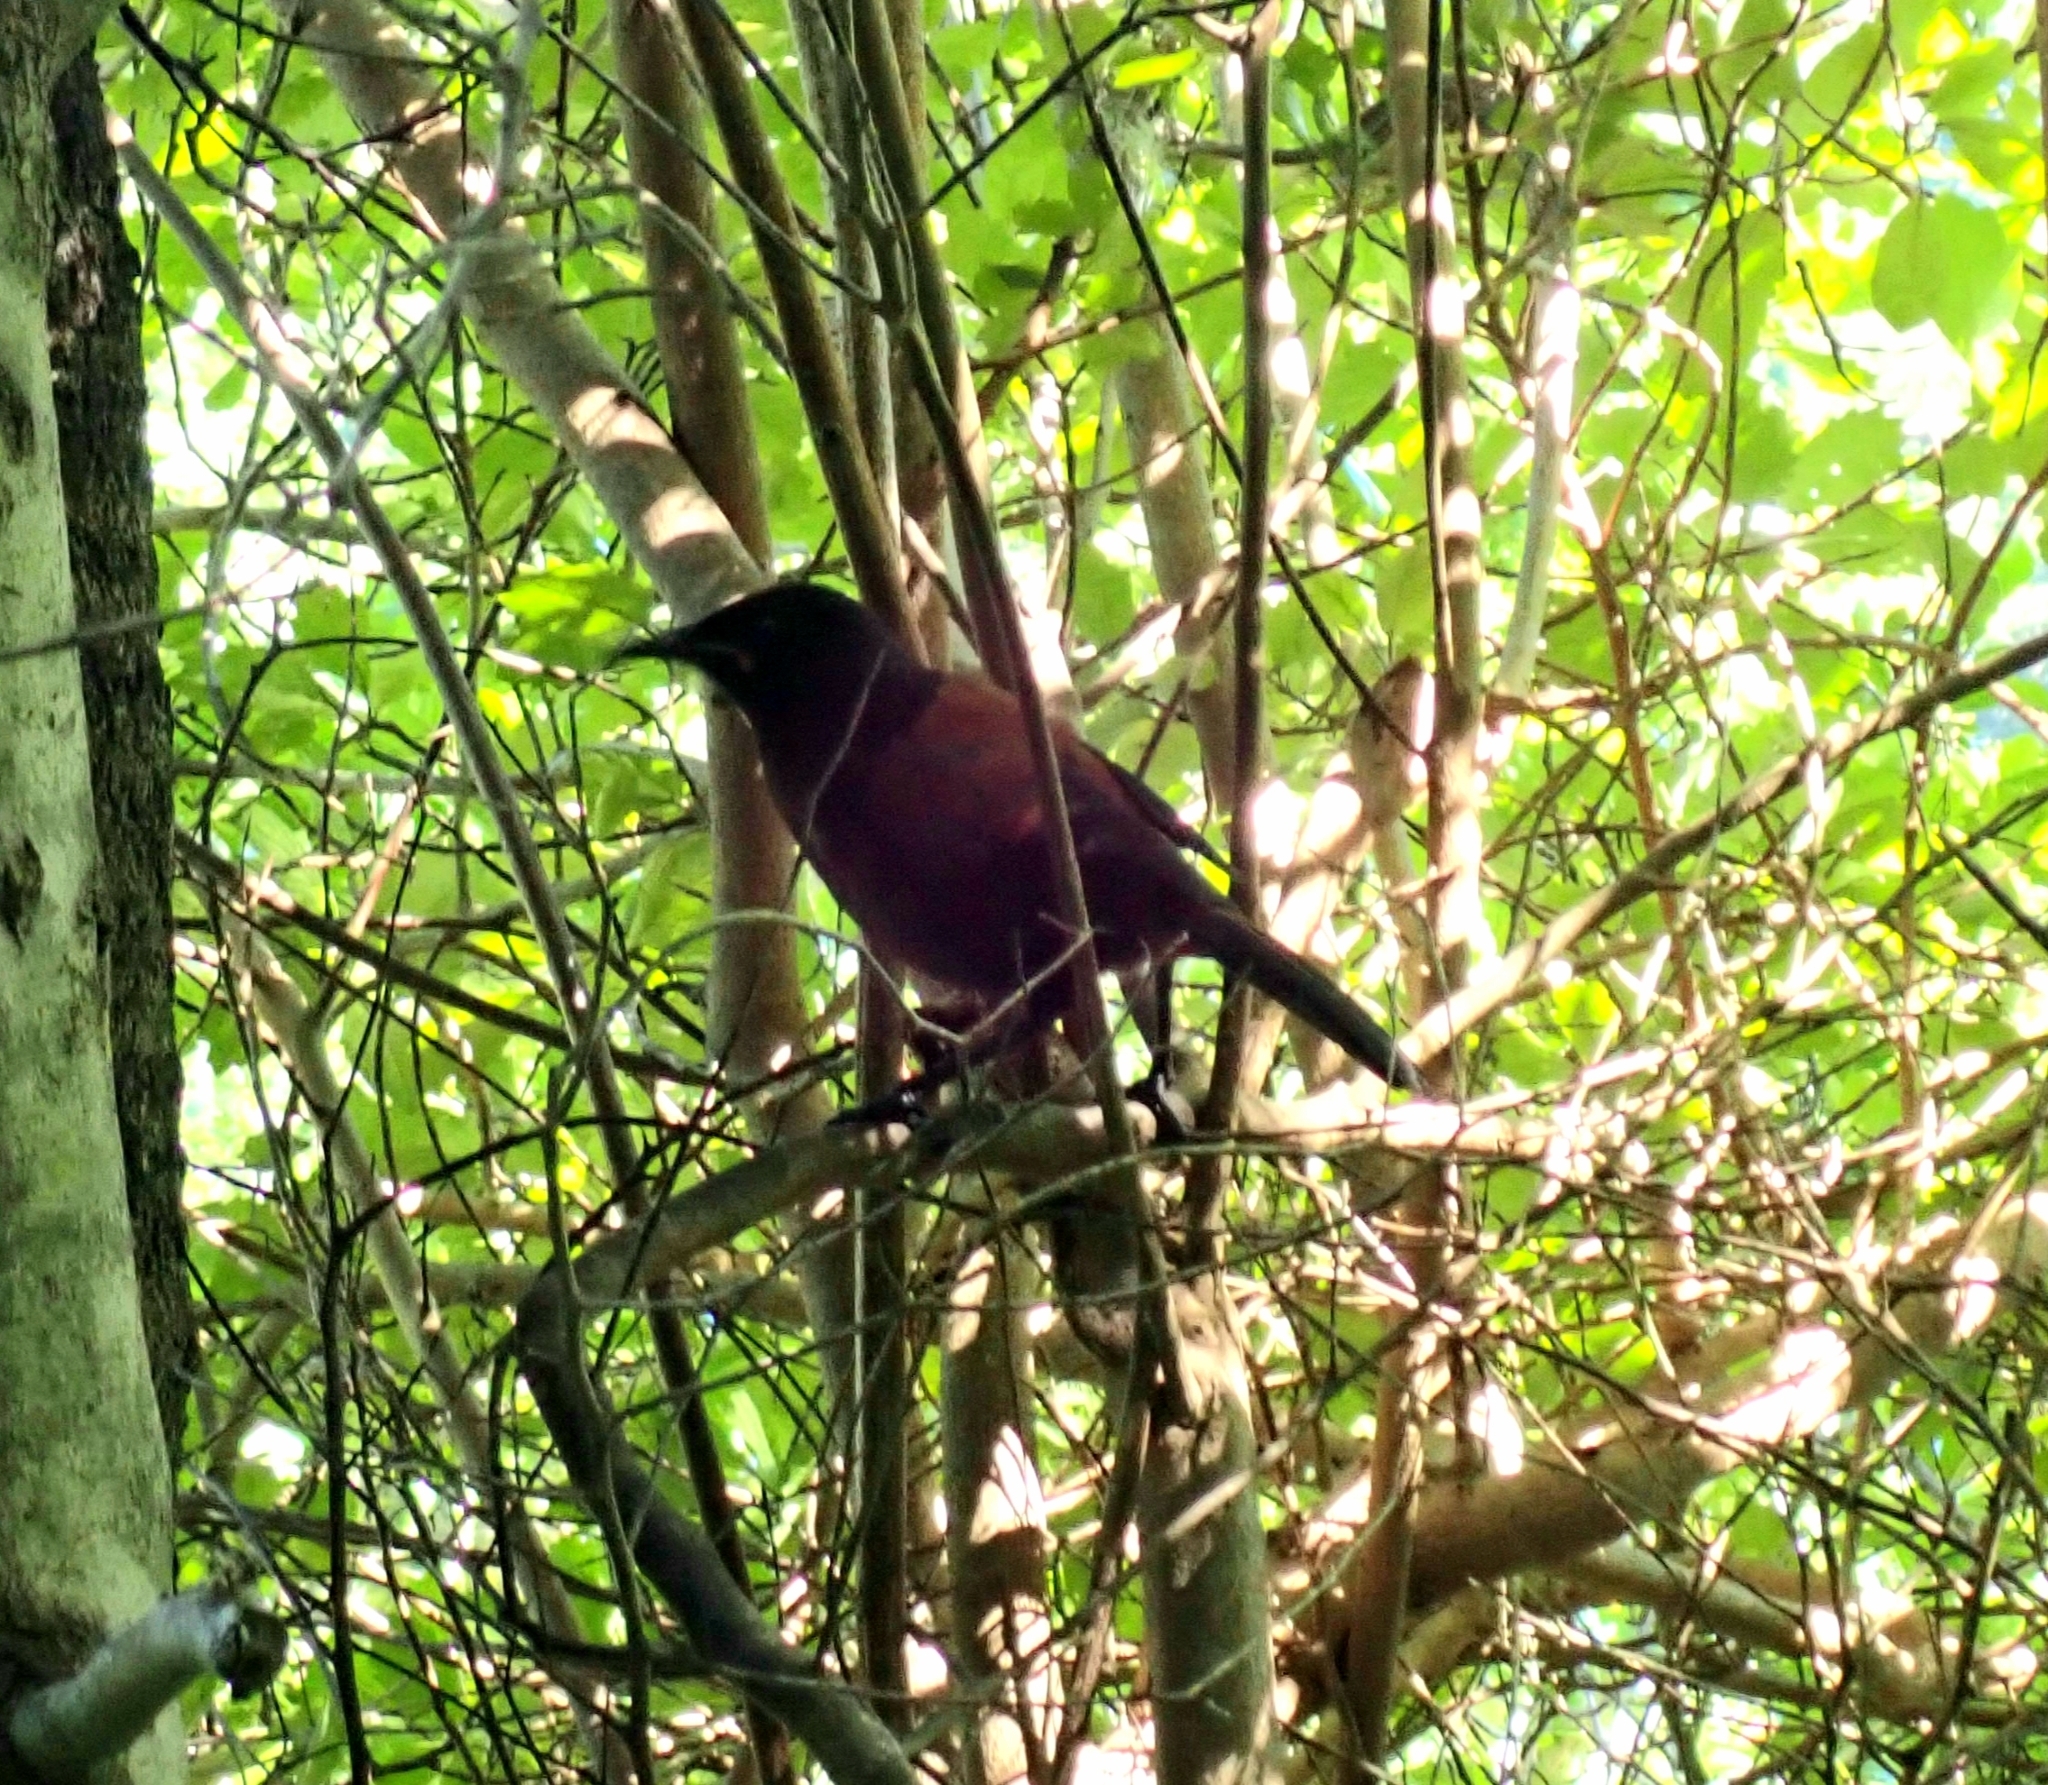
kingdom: Animalia
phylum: Chordata
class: Aves
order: Passeriformes
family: Callaeatidae
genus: Philesturnus
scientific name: Philesturnus carunculatus
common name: South island saddleback
